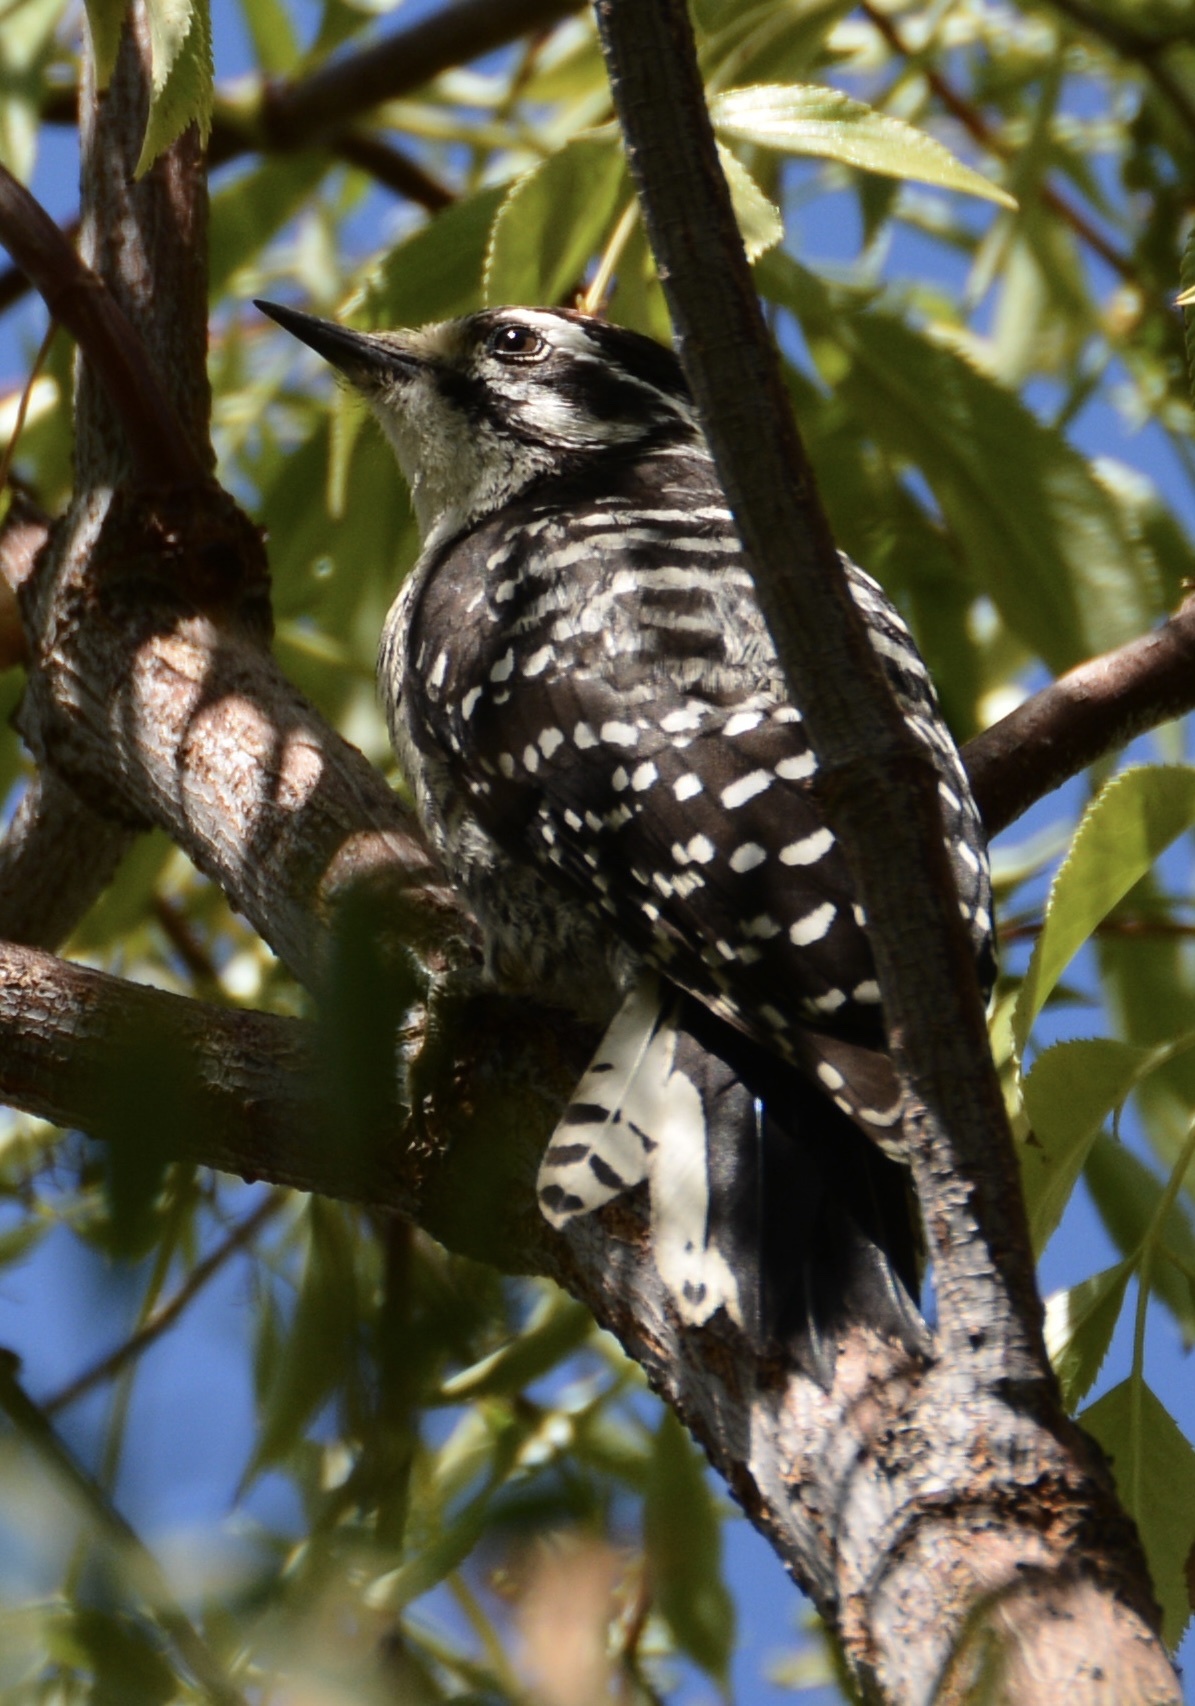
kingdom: Animalia
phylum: Chordata
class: Aves
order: Piciformes
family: Picidae
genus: Dryobates
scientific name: Dryobates nuttallii
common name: Nuttall's woodpecker
